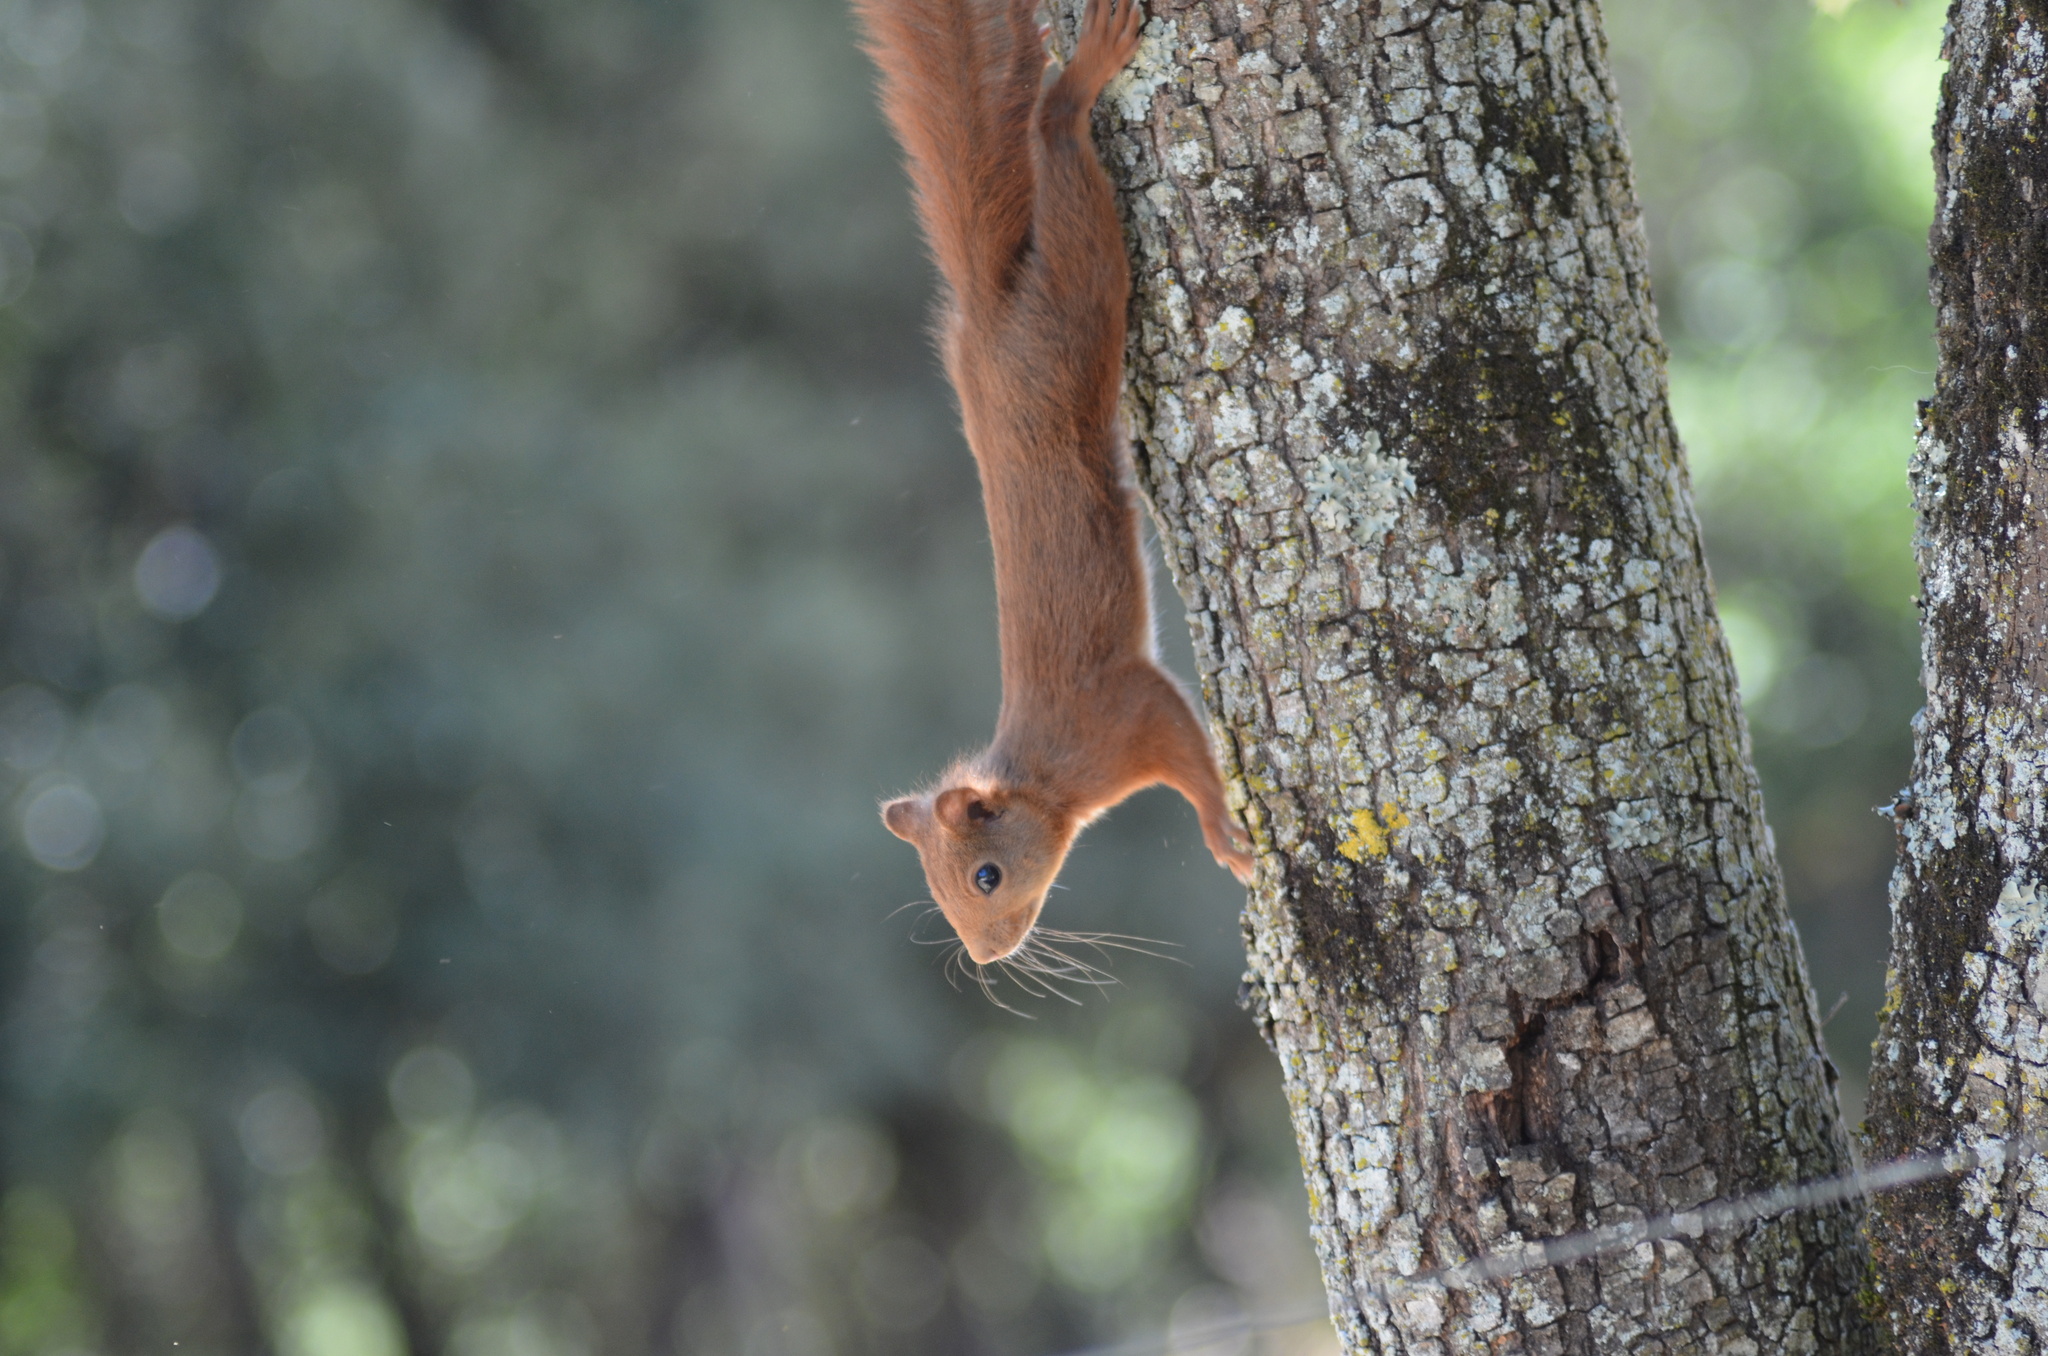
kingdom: Animalia
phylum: Chordata
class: Mammalia
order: Rodentia
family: Sciuridae
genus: Sciurus
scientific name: Sciurus vulgaris
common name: Eurasian red squirrel
